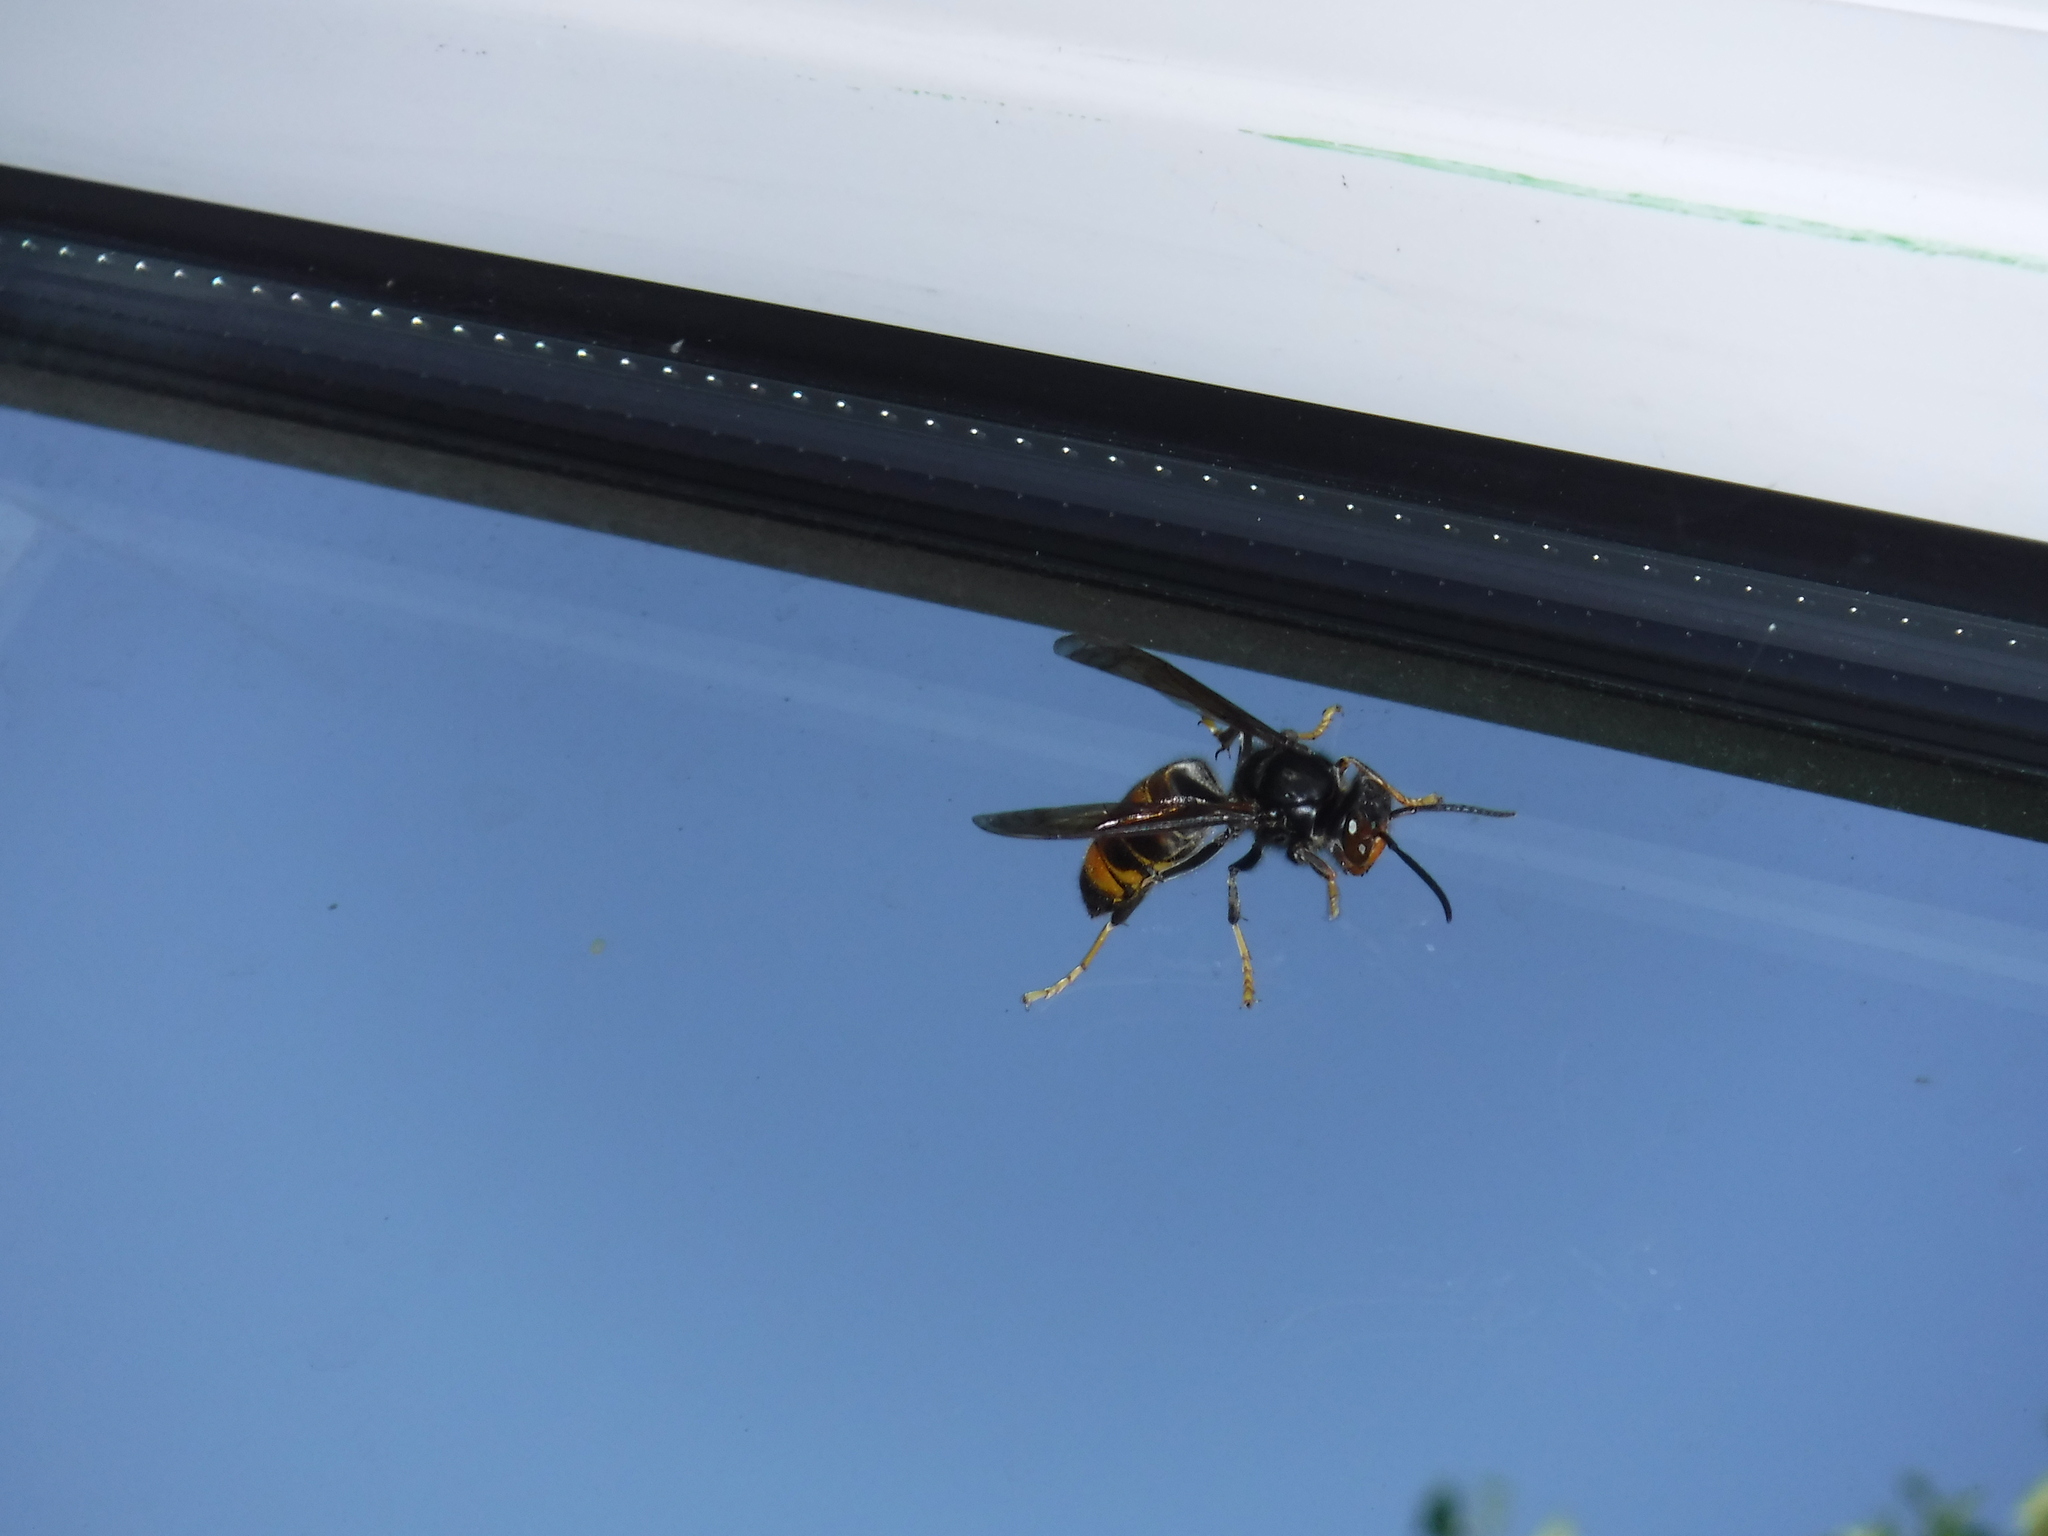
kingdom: Animalia
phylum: Arthropoda
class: Insecta
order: Hymenoptera
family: Vespidae
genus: Vespa
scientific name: Vespa velutina
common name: Asian hornet
